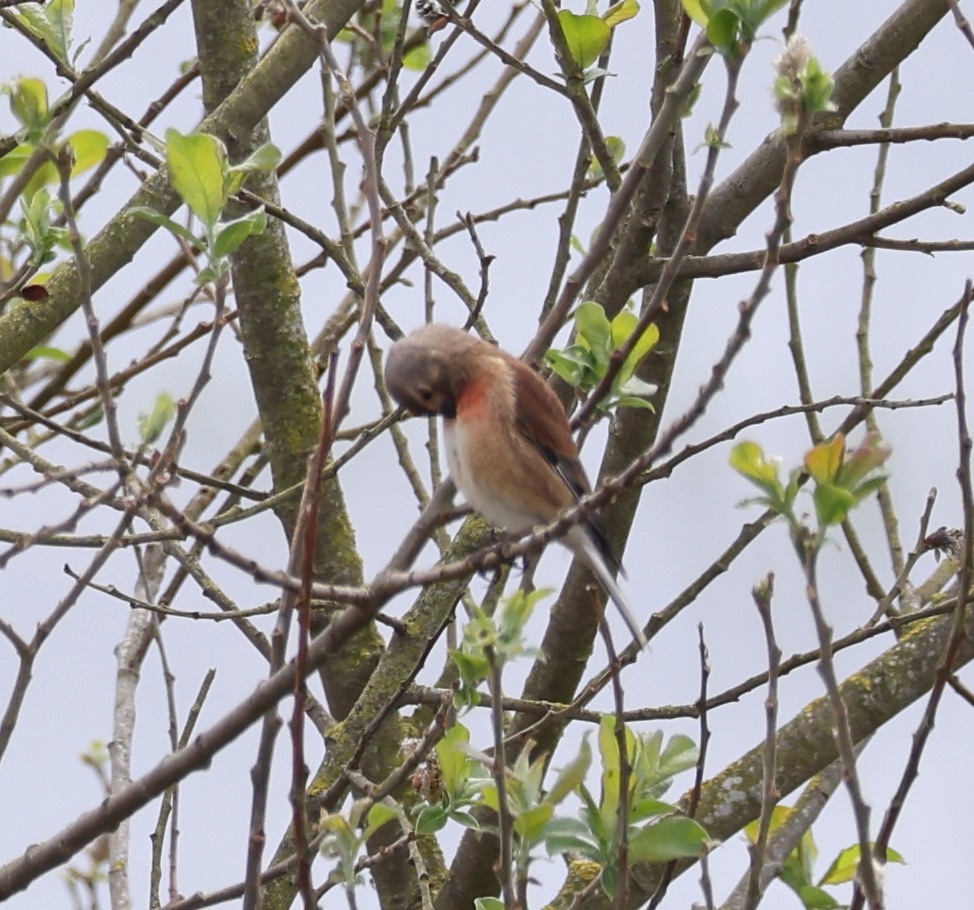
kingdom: Animalia
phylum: Chordata
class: Aves
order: Passeriformes
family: Fringillidae
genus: Linaria
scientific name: Linaria cannabina
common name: Common linnet
